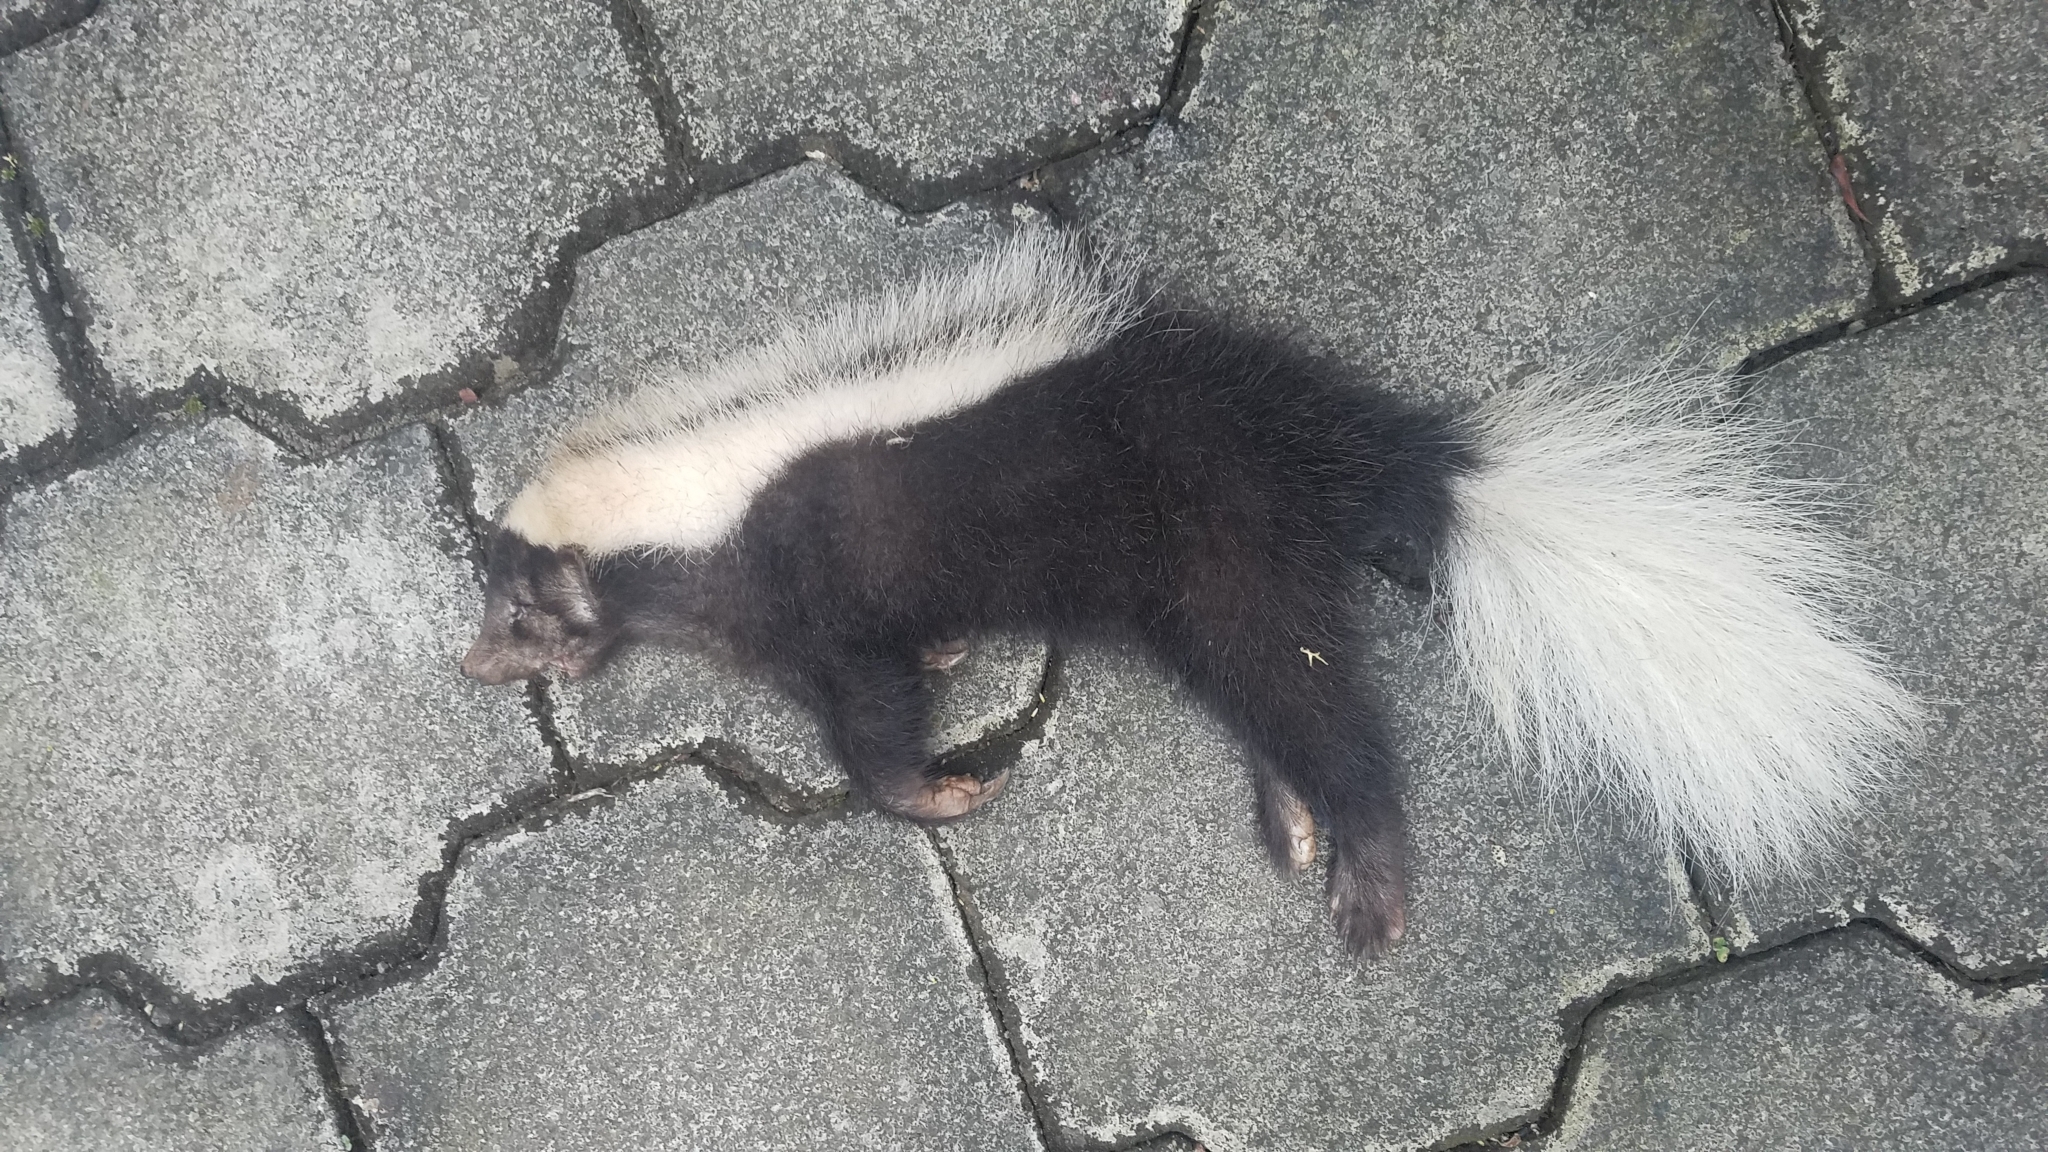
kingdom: Animalia
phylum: Chordata
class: Mammalia
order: Carnivora
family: Mephitidae
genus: Conepatus
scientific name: Conepatus semistriatus
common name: Striped hog-nosed skunk
